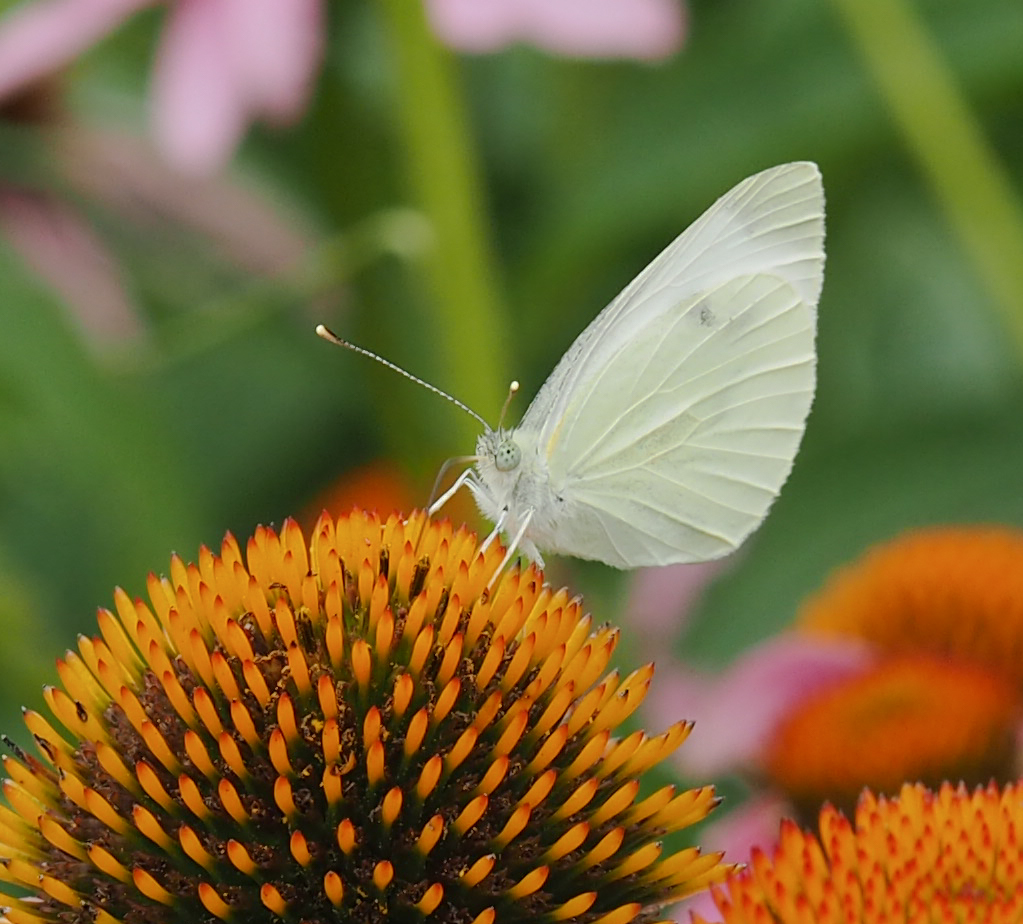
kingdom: Animalia
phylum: Arthropoda
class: Insecta
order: Lepidoptera
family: Pieridae
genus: Pieris
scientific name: Pieris rapae
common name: Small white
